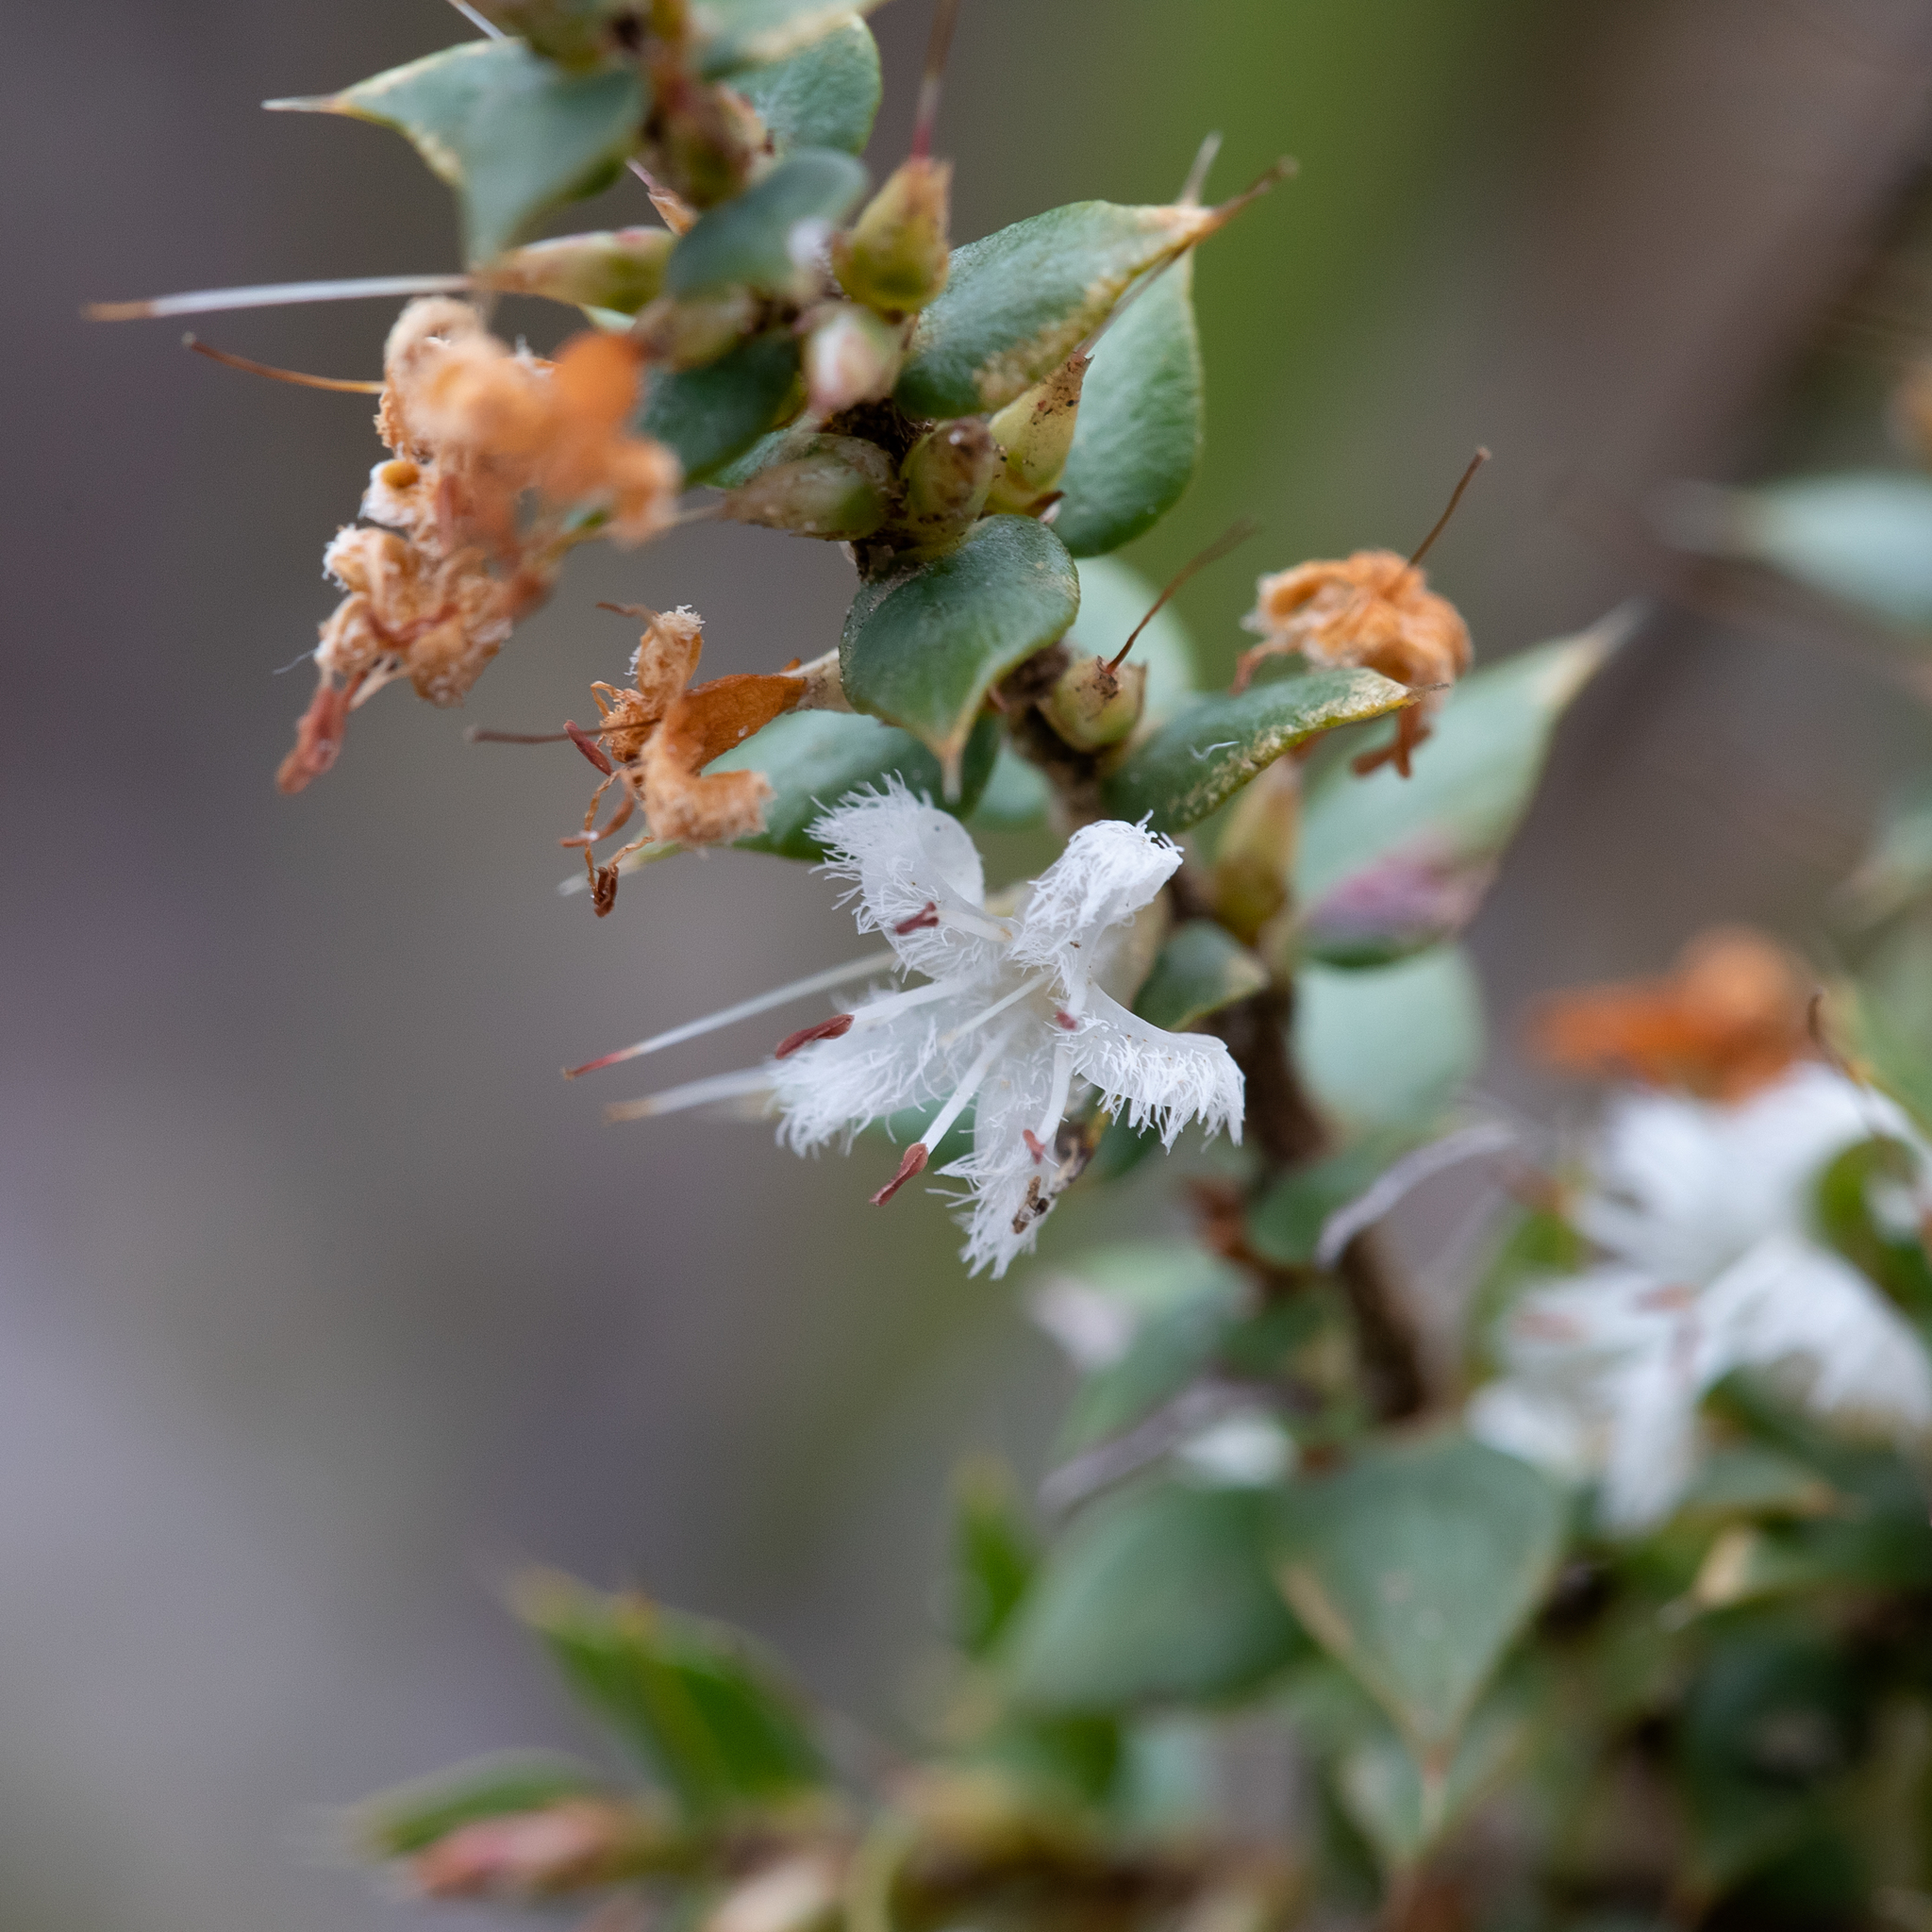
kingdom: Plantae
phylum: Tracheophyta
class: Magnoliopsida
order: Ericales
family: Ericaceae
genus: Styphelia
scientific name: Styphelia exarrhena
